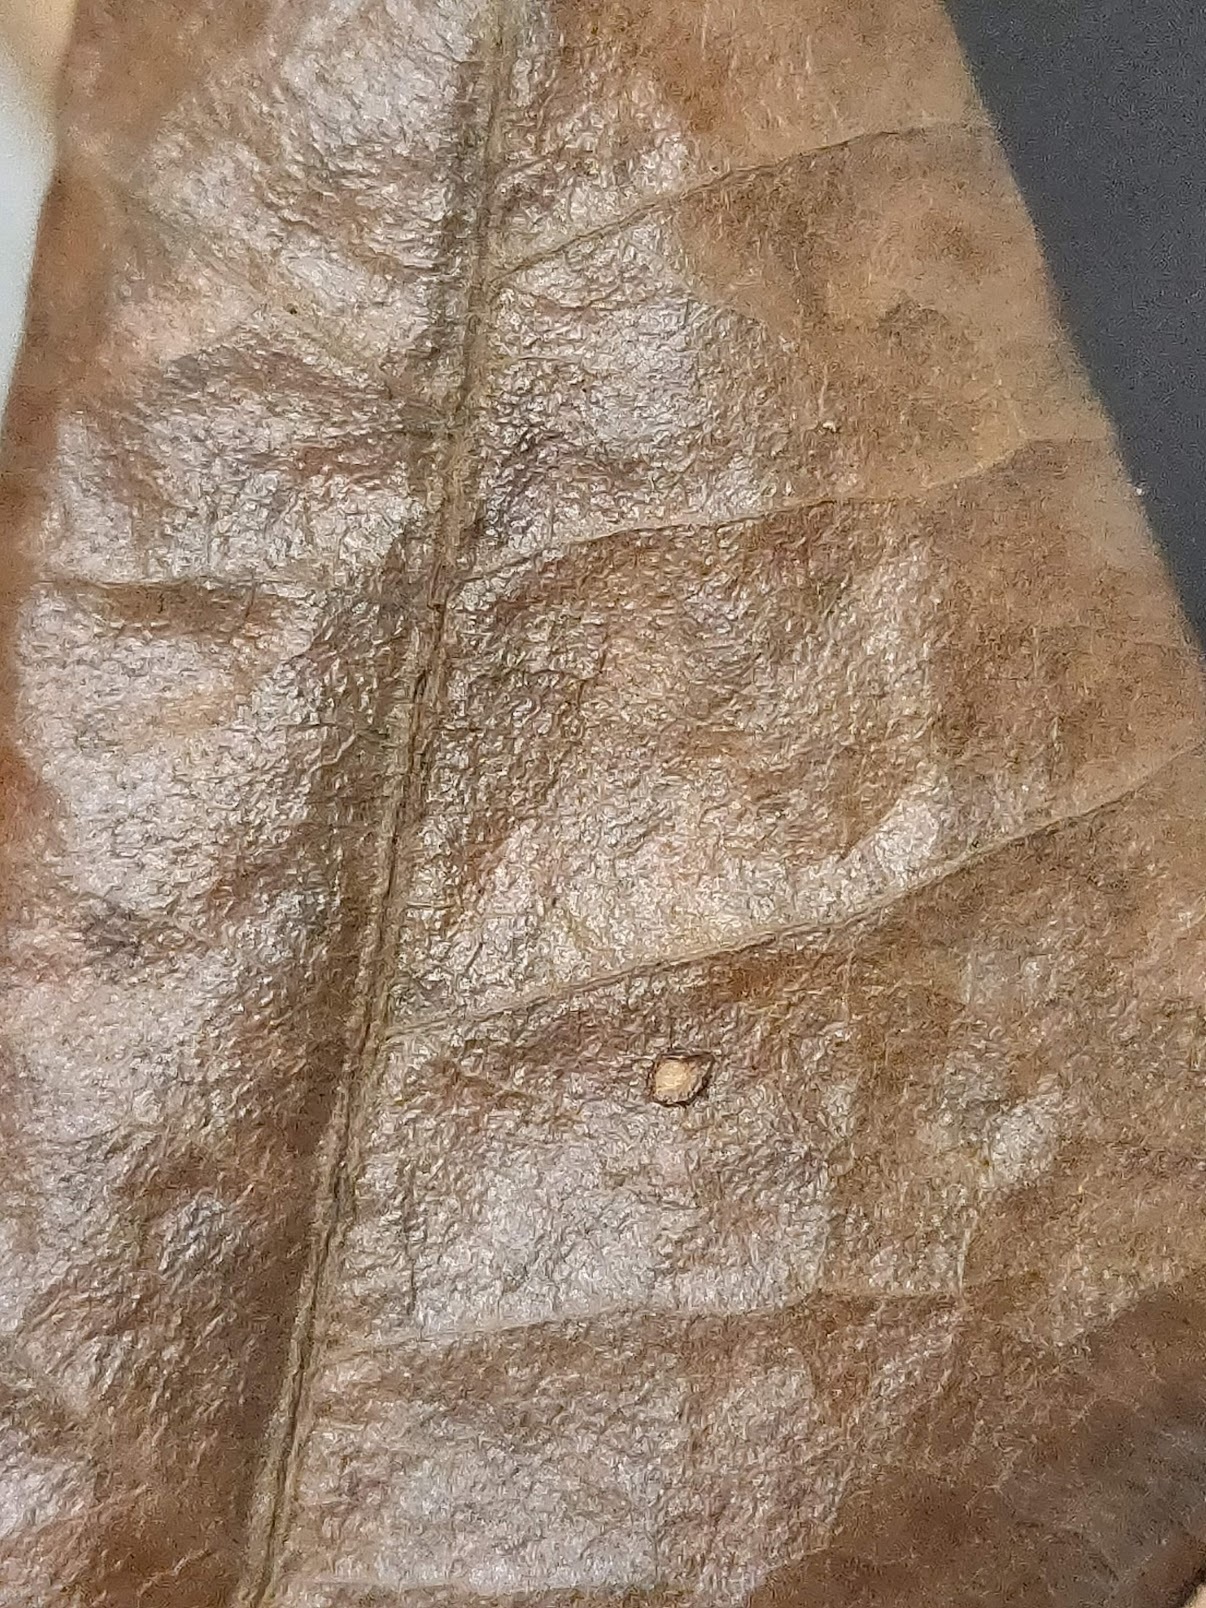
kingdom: Plantae
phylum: Tracheophyta
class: Magnoliopsida
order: Gentianales
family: Apocynaceae
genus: Parsonsia
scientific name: Parsonsia brisbanensis
